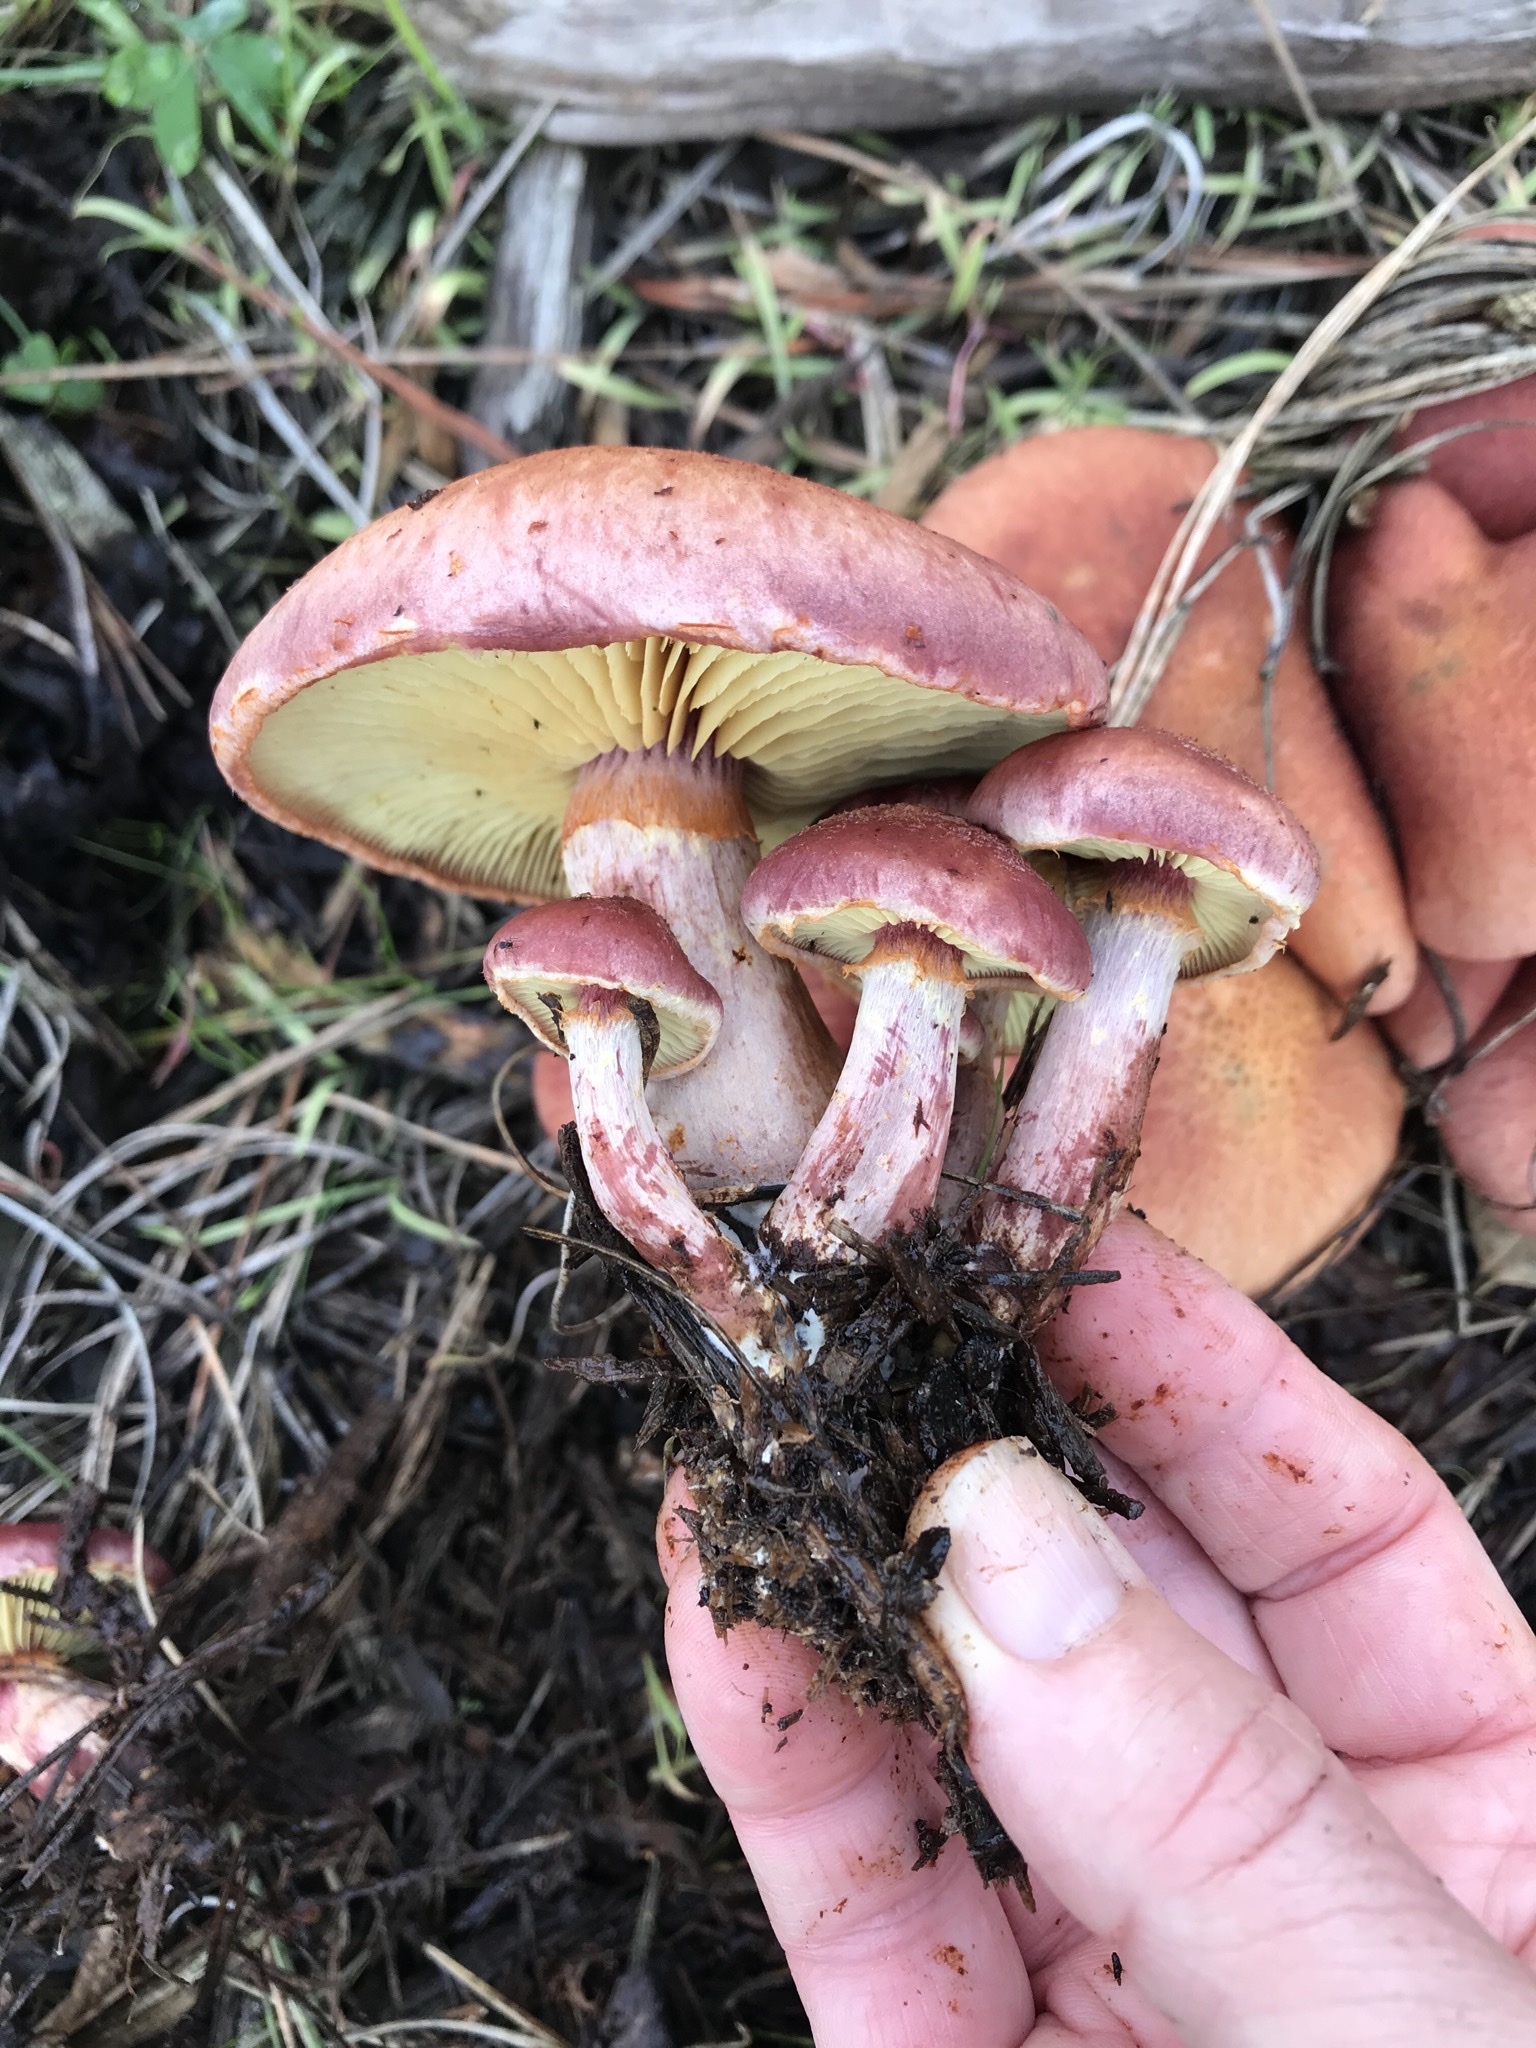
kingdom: Fungi
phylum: Basidiomycota
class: Agaricomycetes
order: Agaricales
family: Hymenogastraceae
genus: Gymnopilus
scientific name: Gymnopilus thiersii
